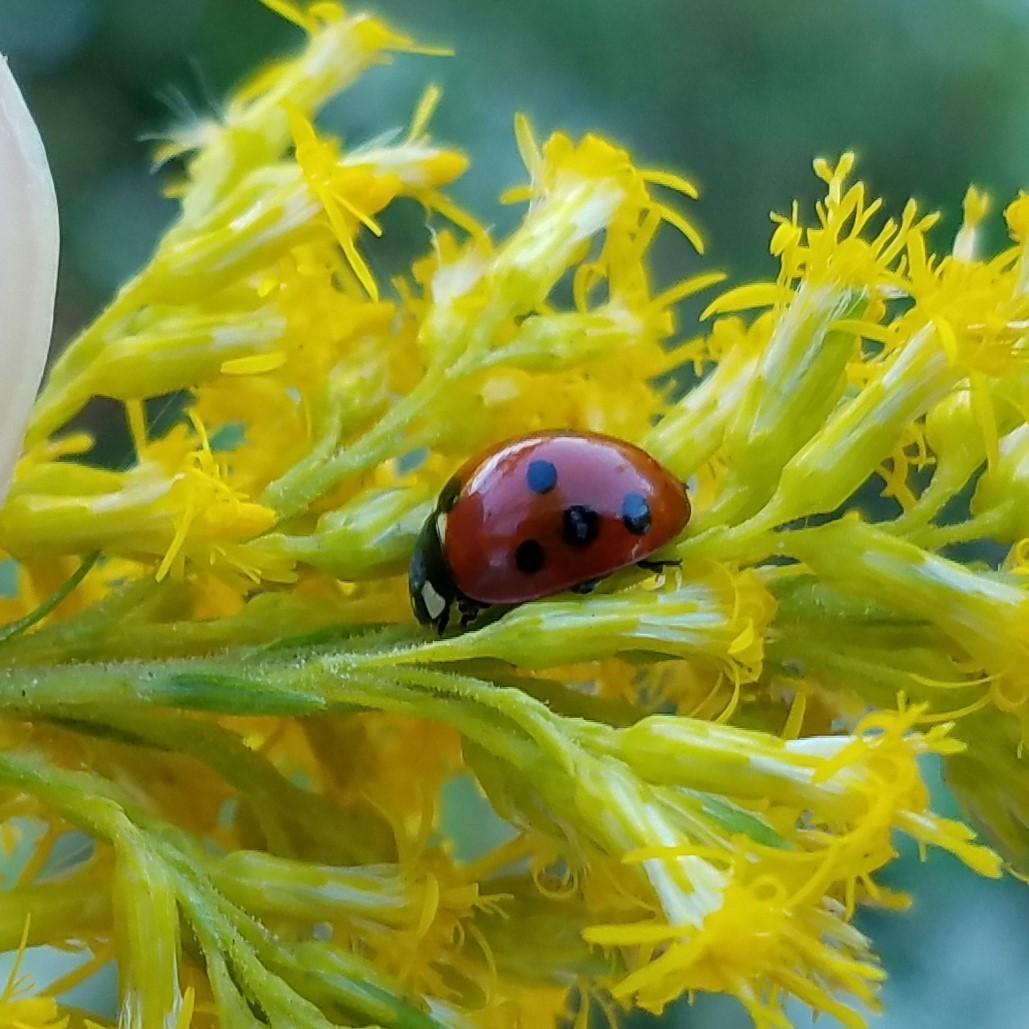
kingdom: Animalia
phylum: Arthropoda
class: Insecta
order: Coleoptera
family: Coccinellidae
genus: Coccinella
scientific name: Coccinella septempunctata
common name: Sevenspotted lady beetle
